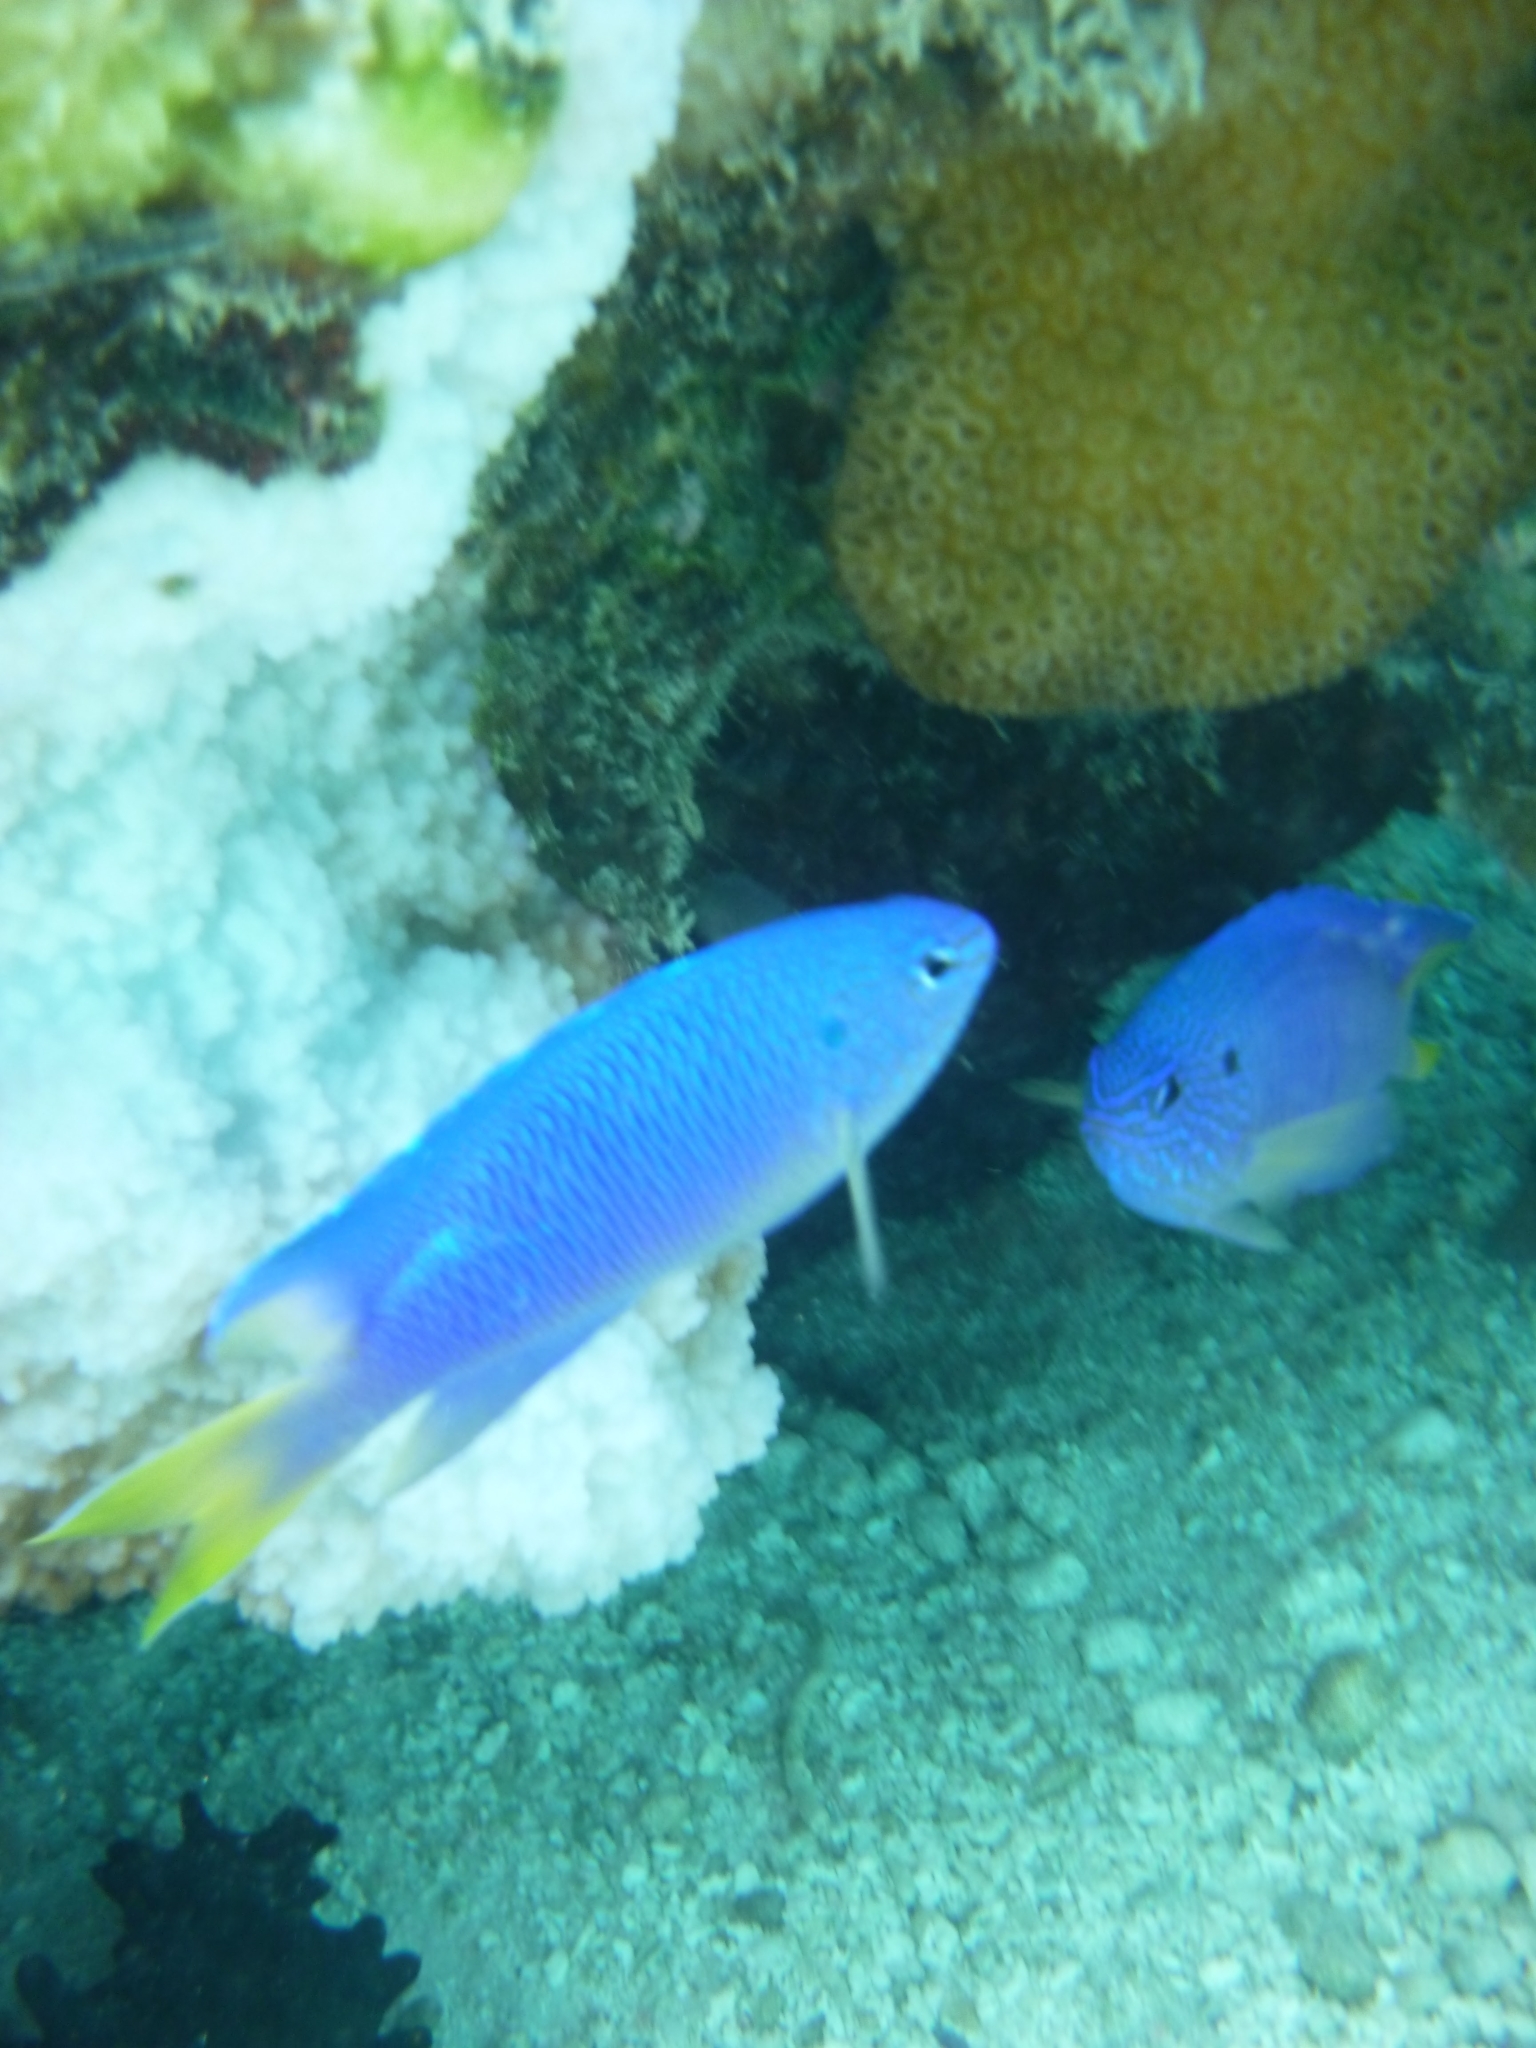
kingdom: Animalia
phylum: Chordata
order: Perciformes
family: Pomacentridae
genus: Pomacentrus
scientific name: Pomacentrus pavo
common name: Sapphire damsel
